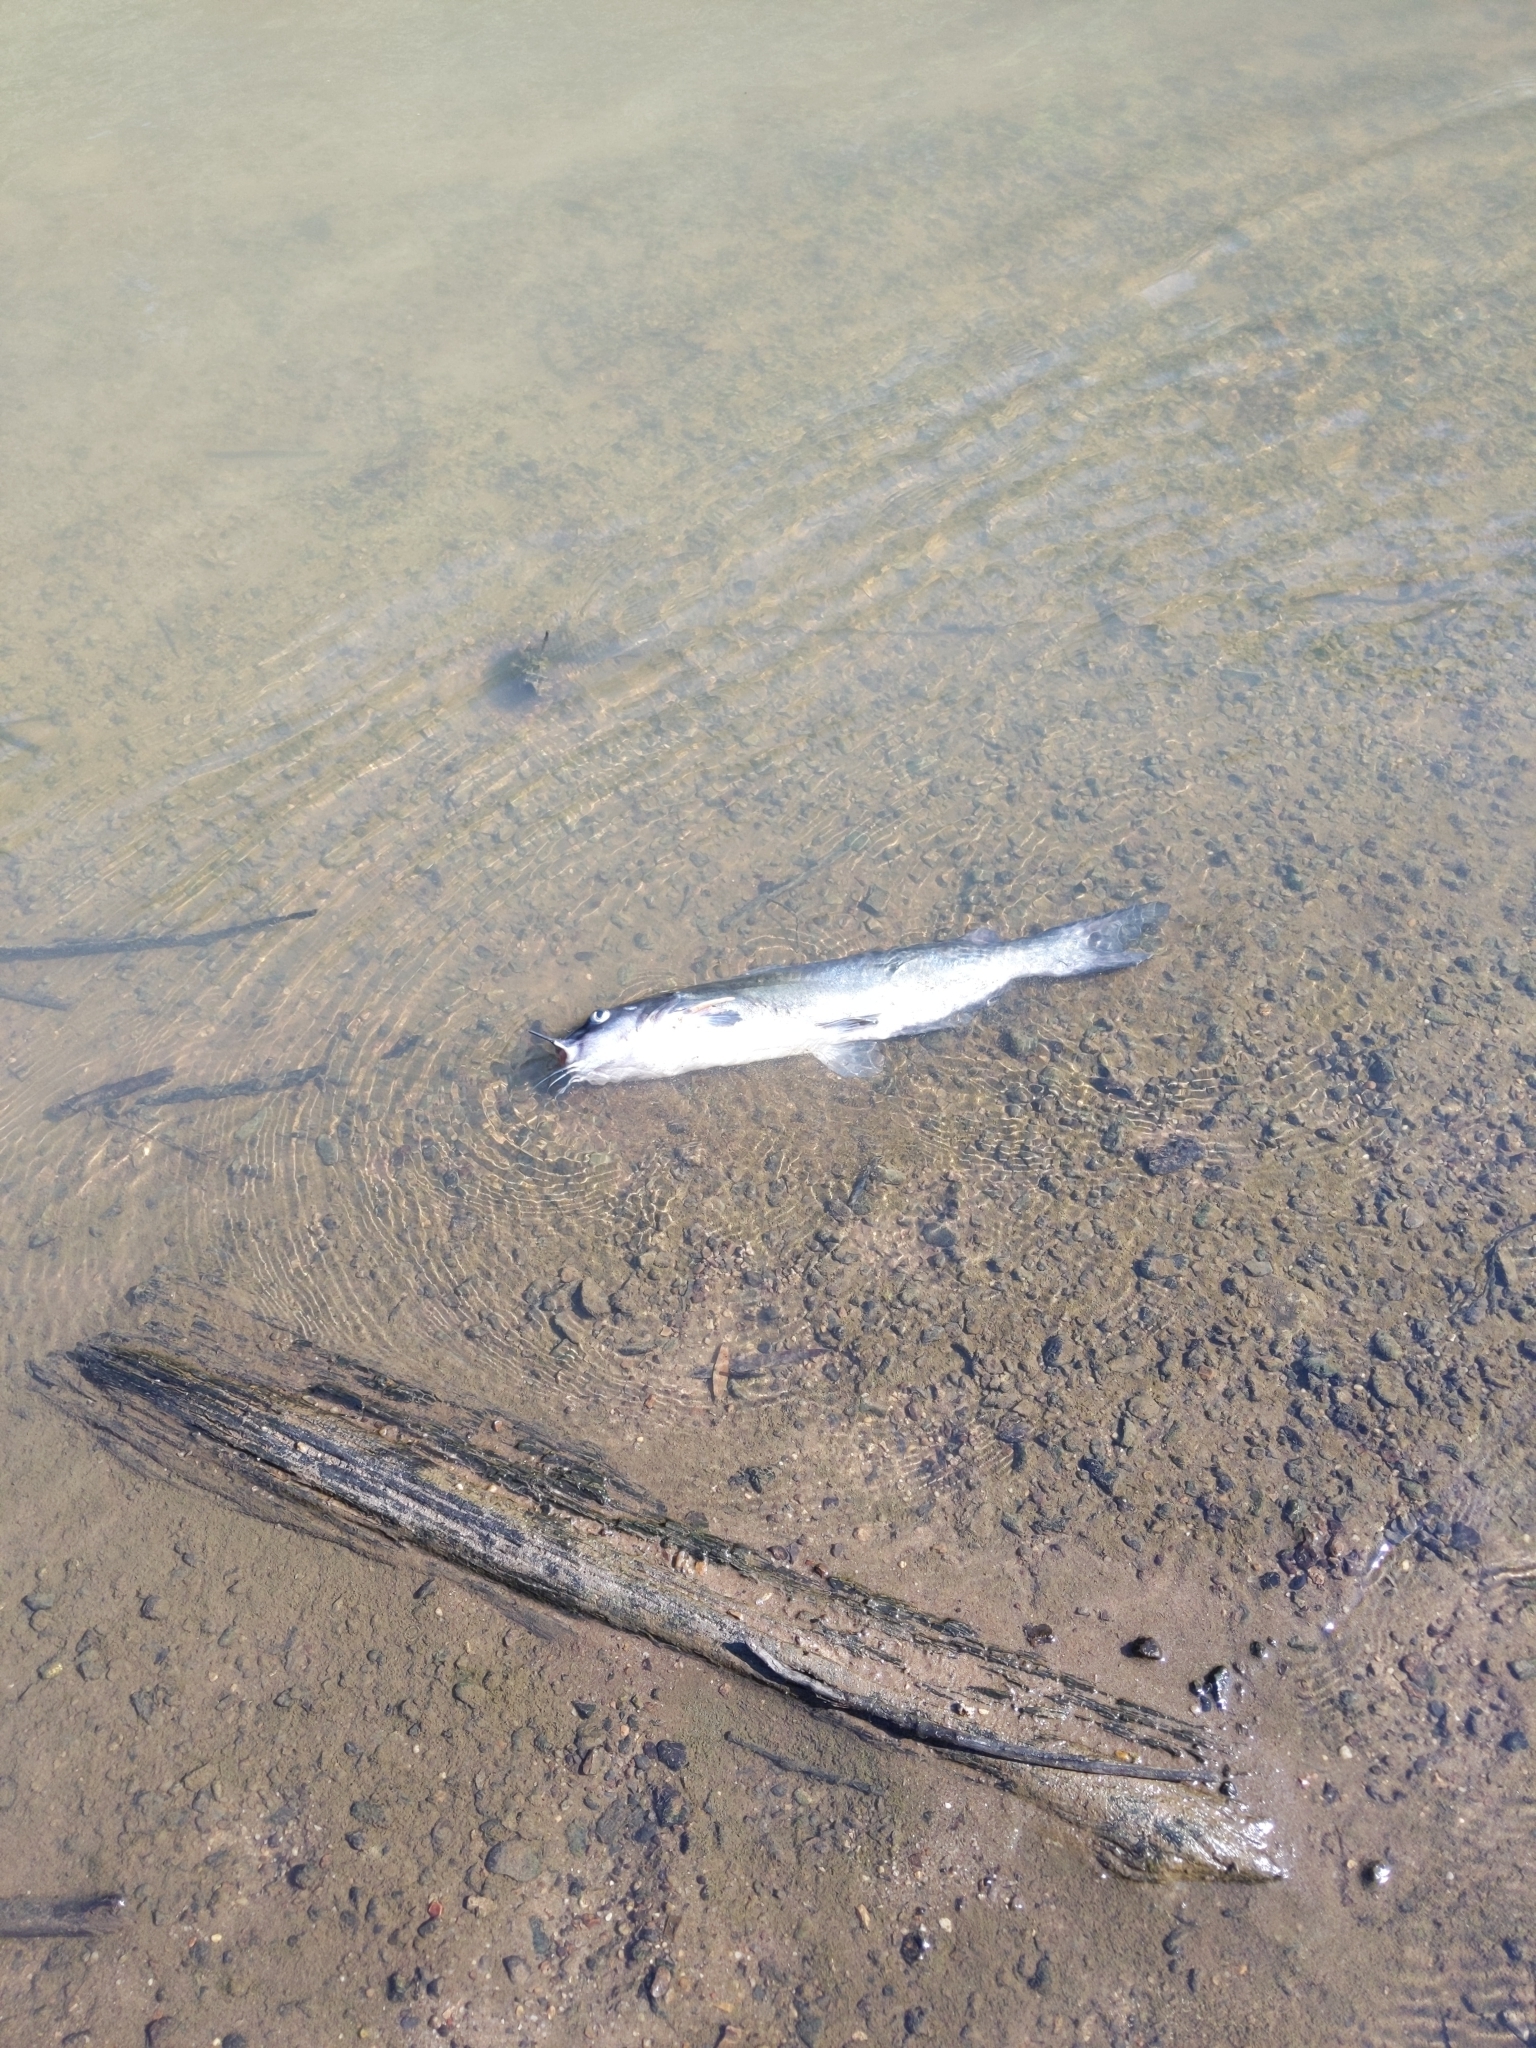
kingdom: Animalia
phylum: Chordata
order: Siluriformes
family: Ictaluridae
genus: Ictalurus
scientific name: Ictalurus furcatus
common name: Blue catfish
